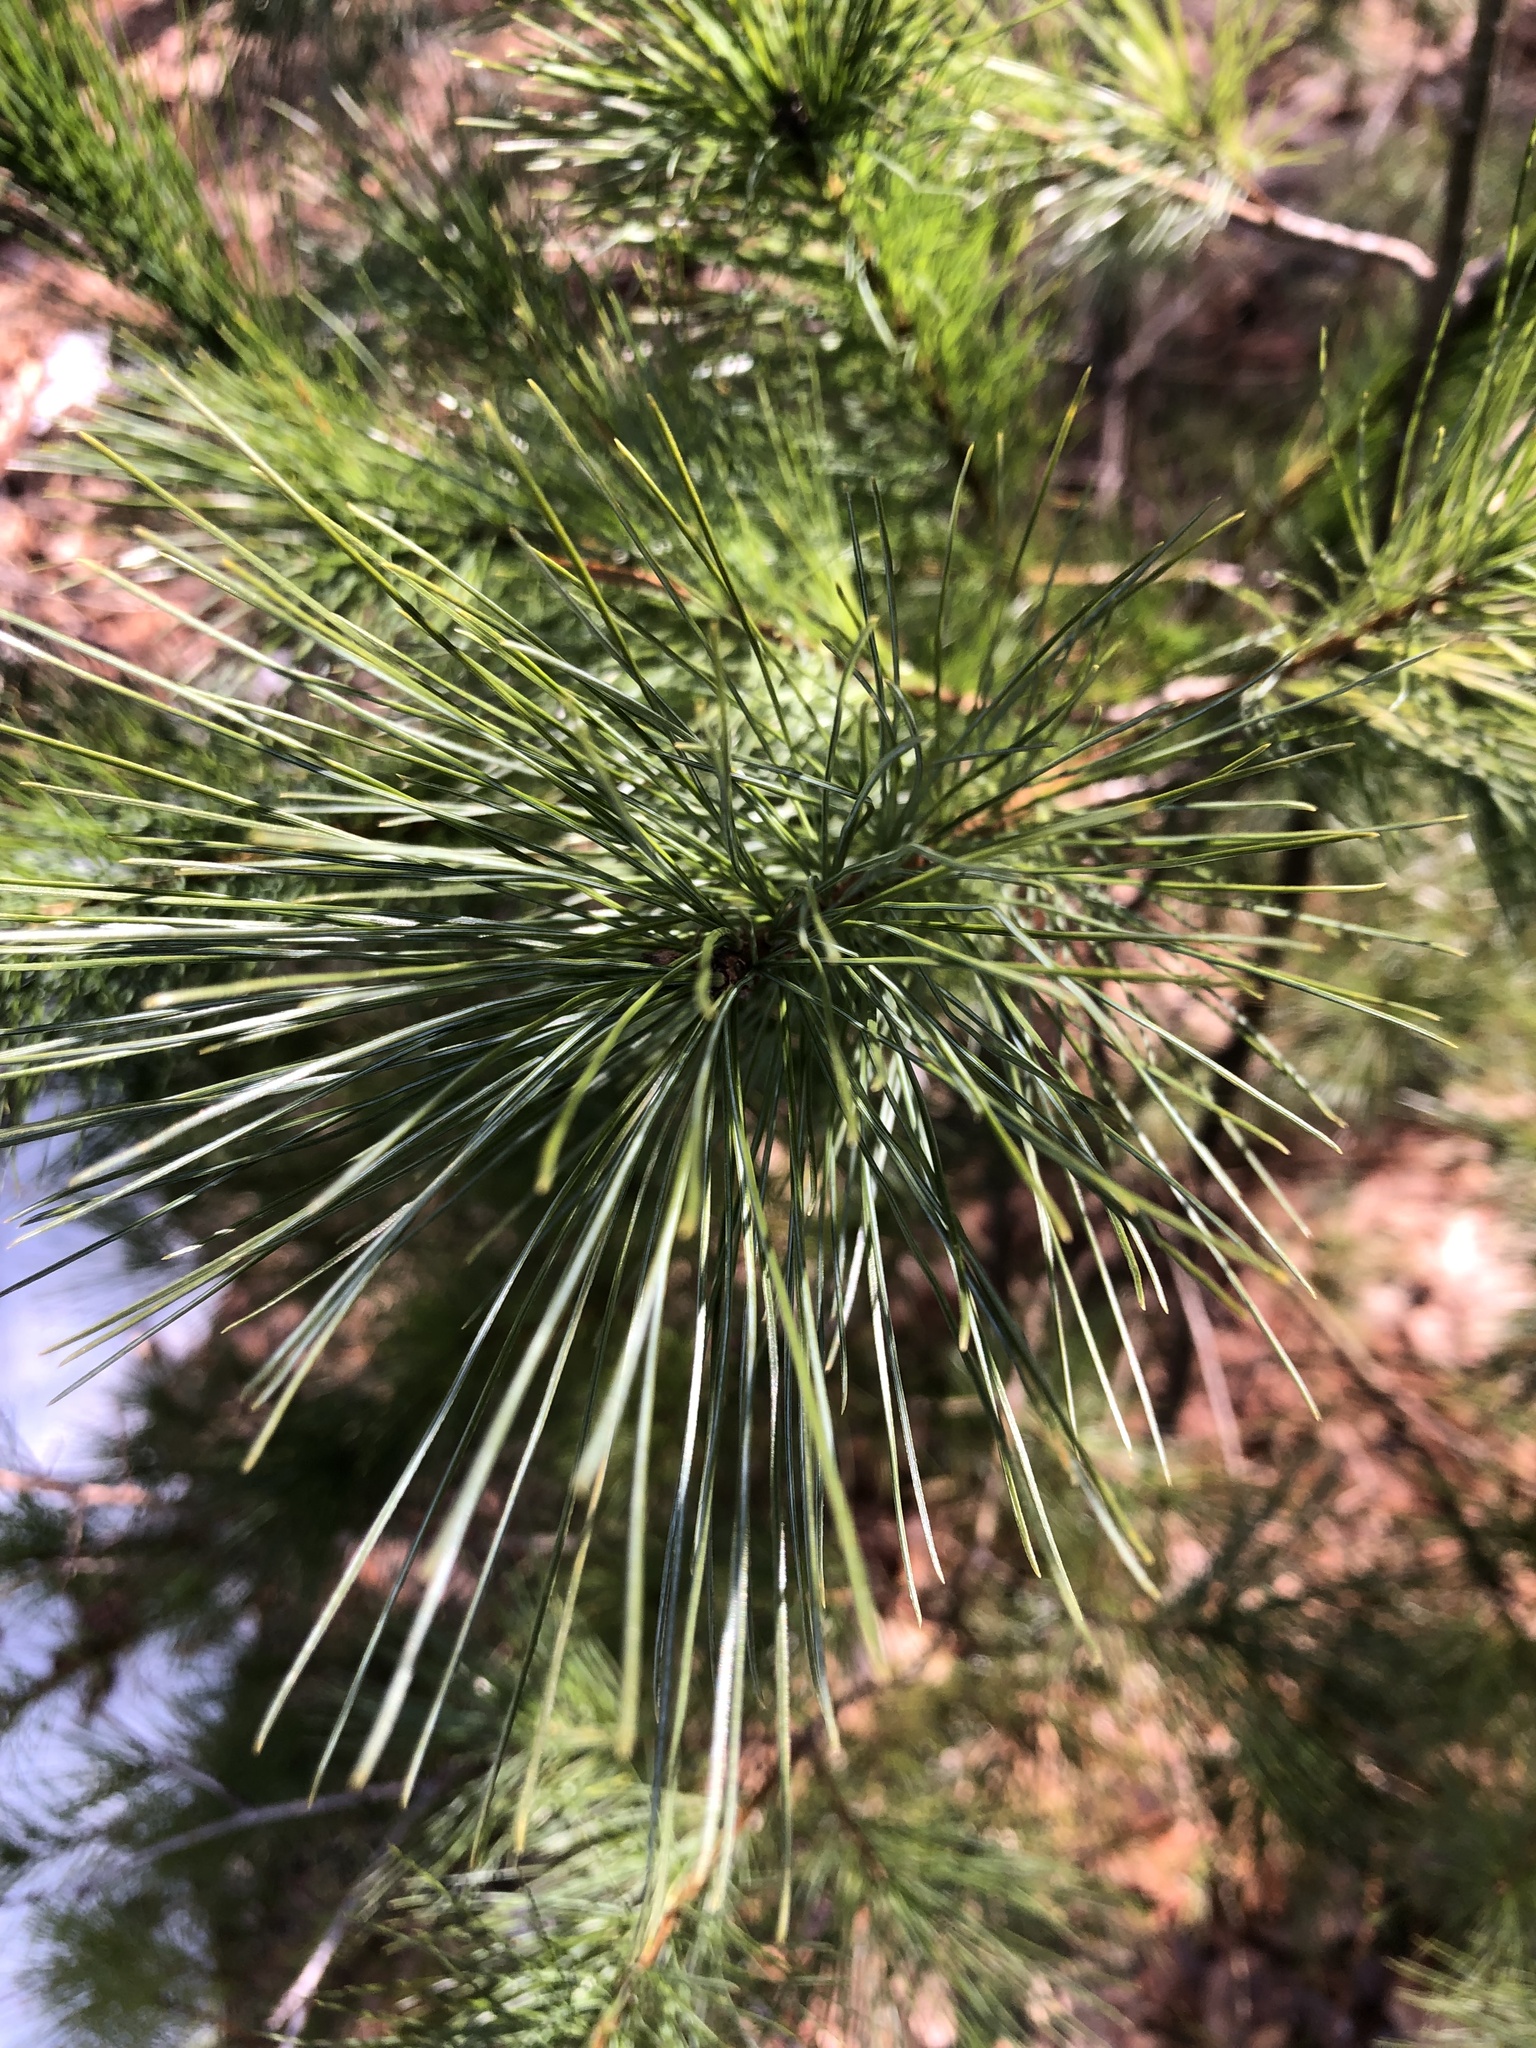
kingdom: Plantae
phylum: Tracheophyta
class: Pinopsida
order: Pinales
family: Pinaceae
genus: Pinus
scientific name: Pinus strobus
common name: Weymouth pine
